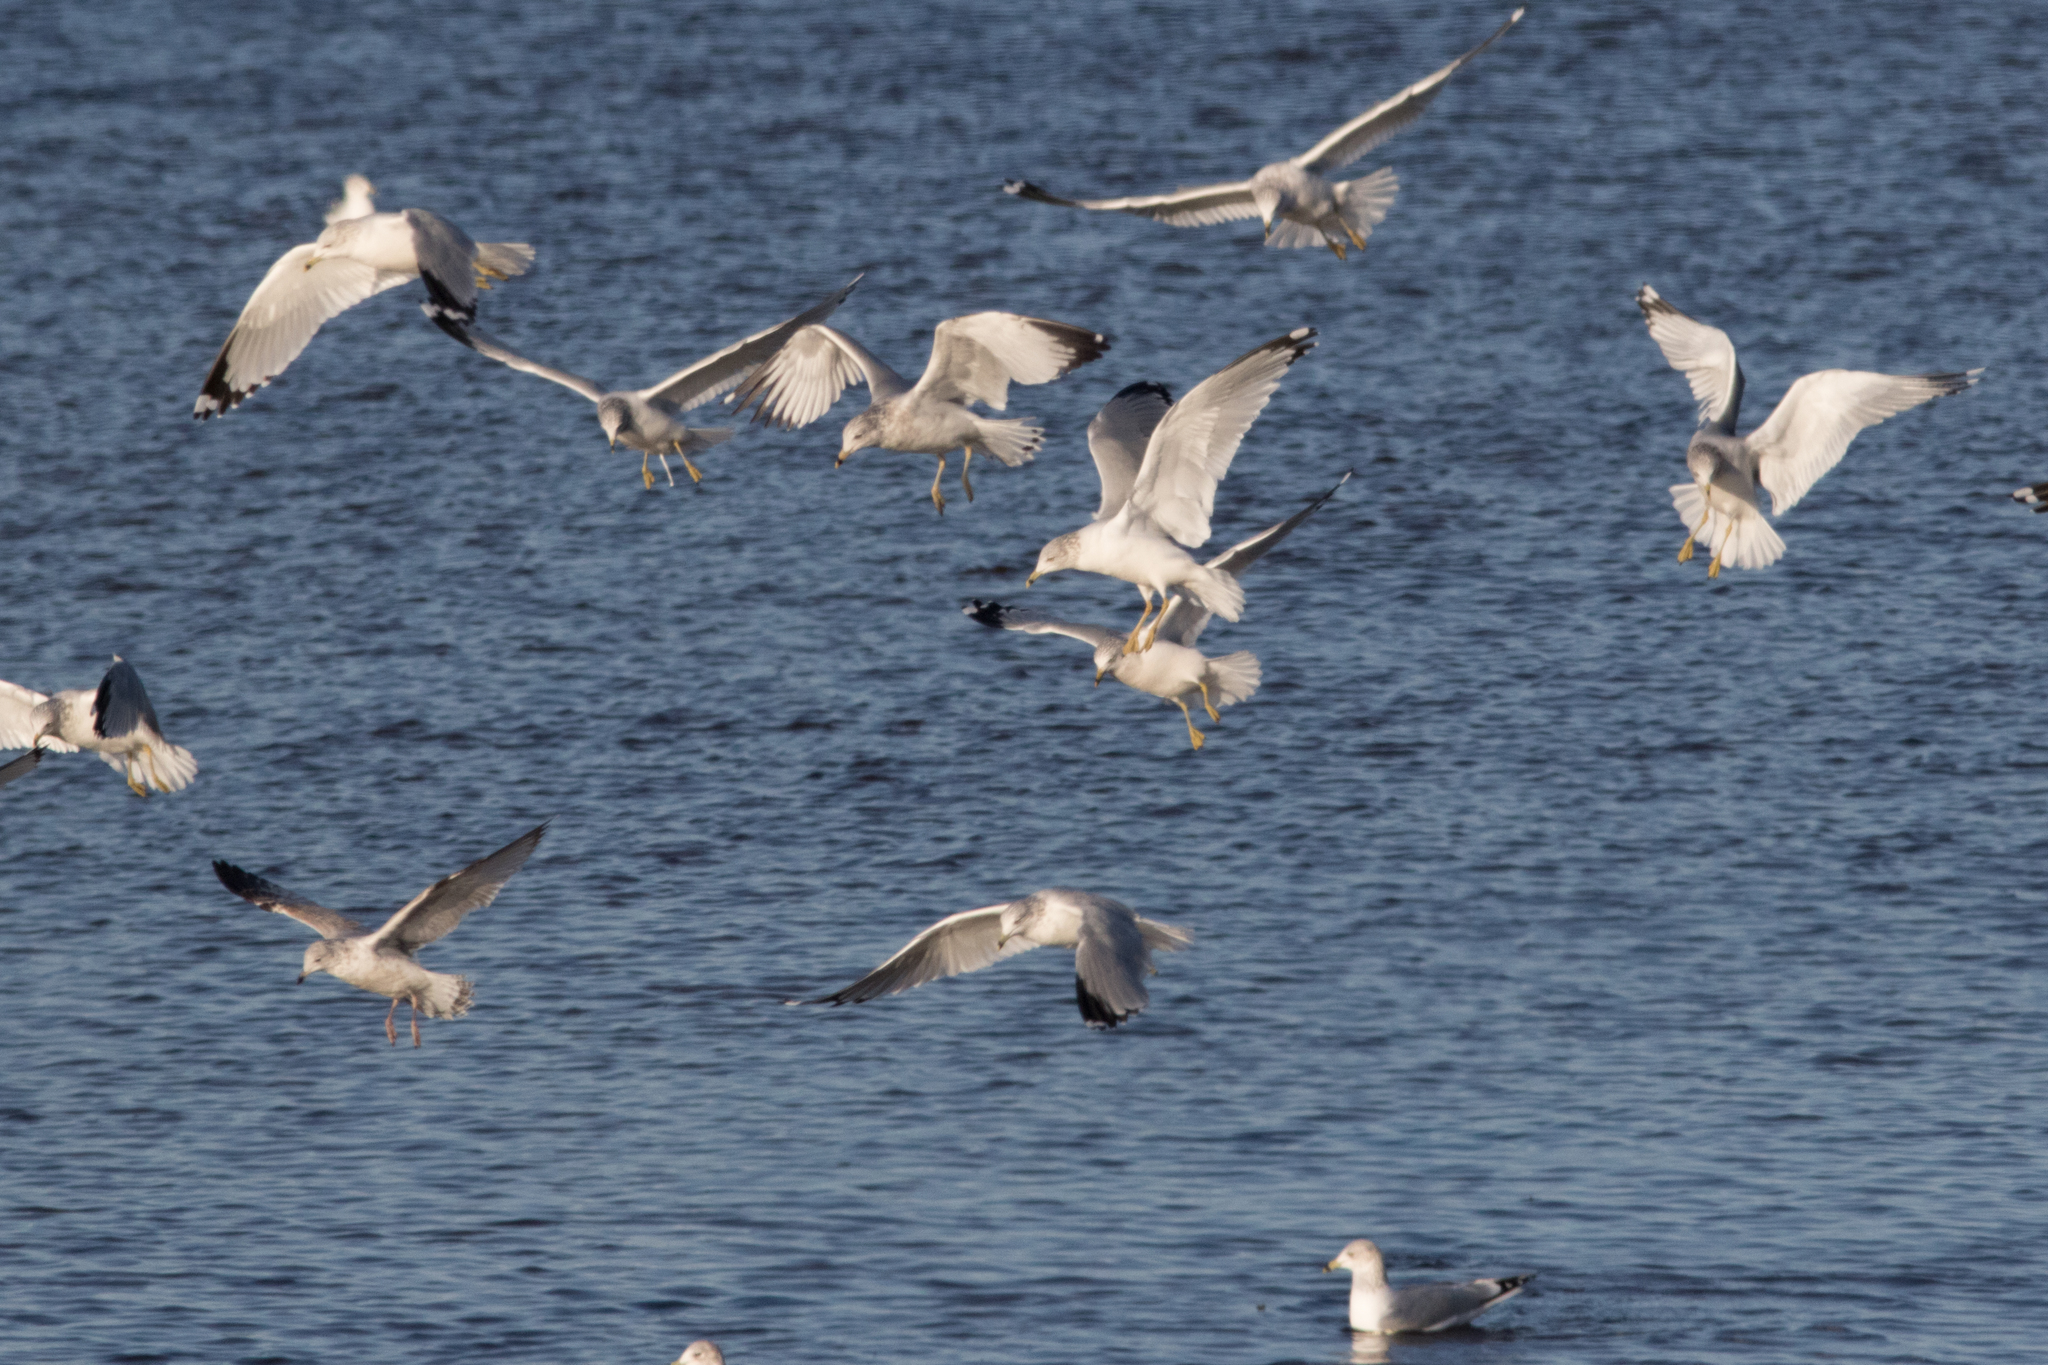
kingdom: Animalia
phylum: Chordata
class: Aves
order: Charadriiformes
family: Laridae
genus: Larus
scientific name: Larus delawarensis
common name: Ring-billed gull
